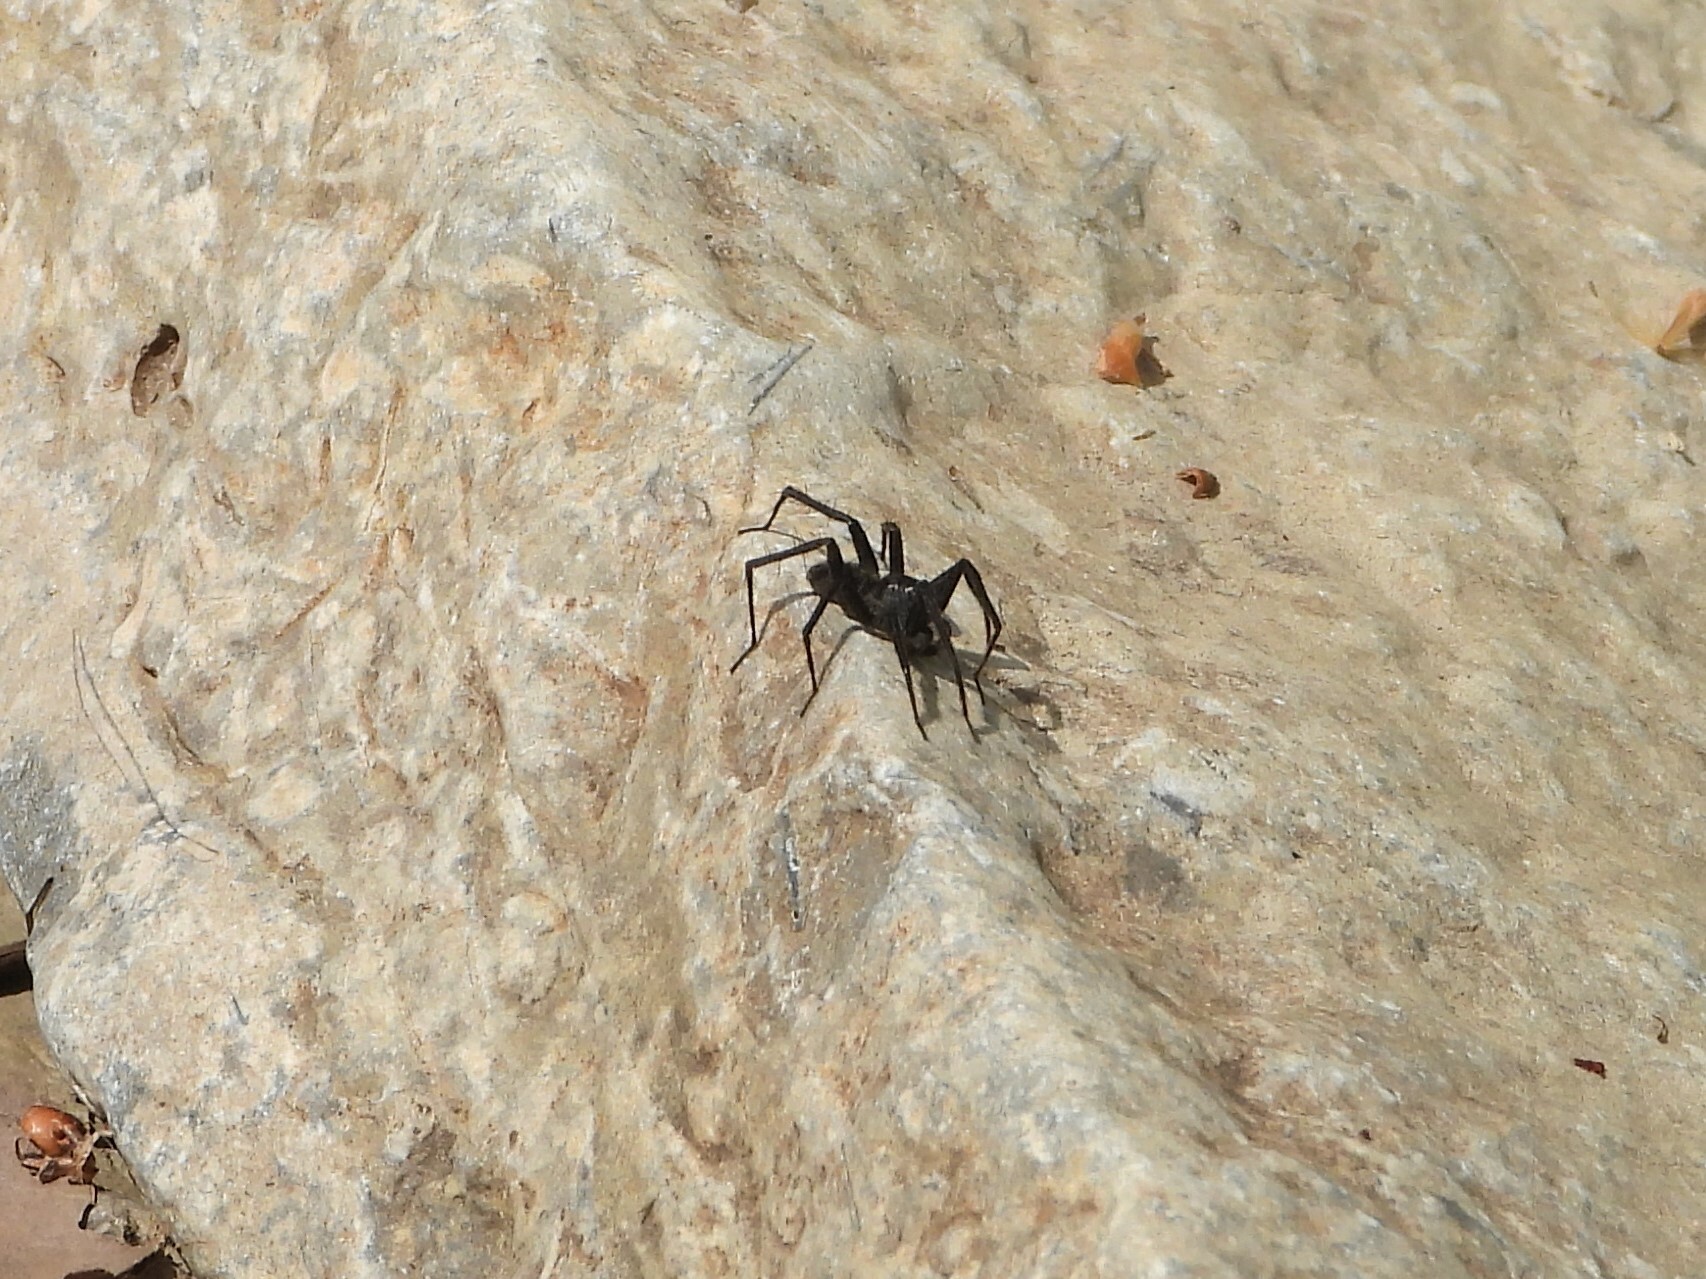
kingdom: Animalia
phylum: Arthropoda
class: Arachnida
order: Araneae
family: Lycosidae
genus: Pardosa
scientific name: Pardosa lapidicina
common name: Stone spider
